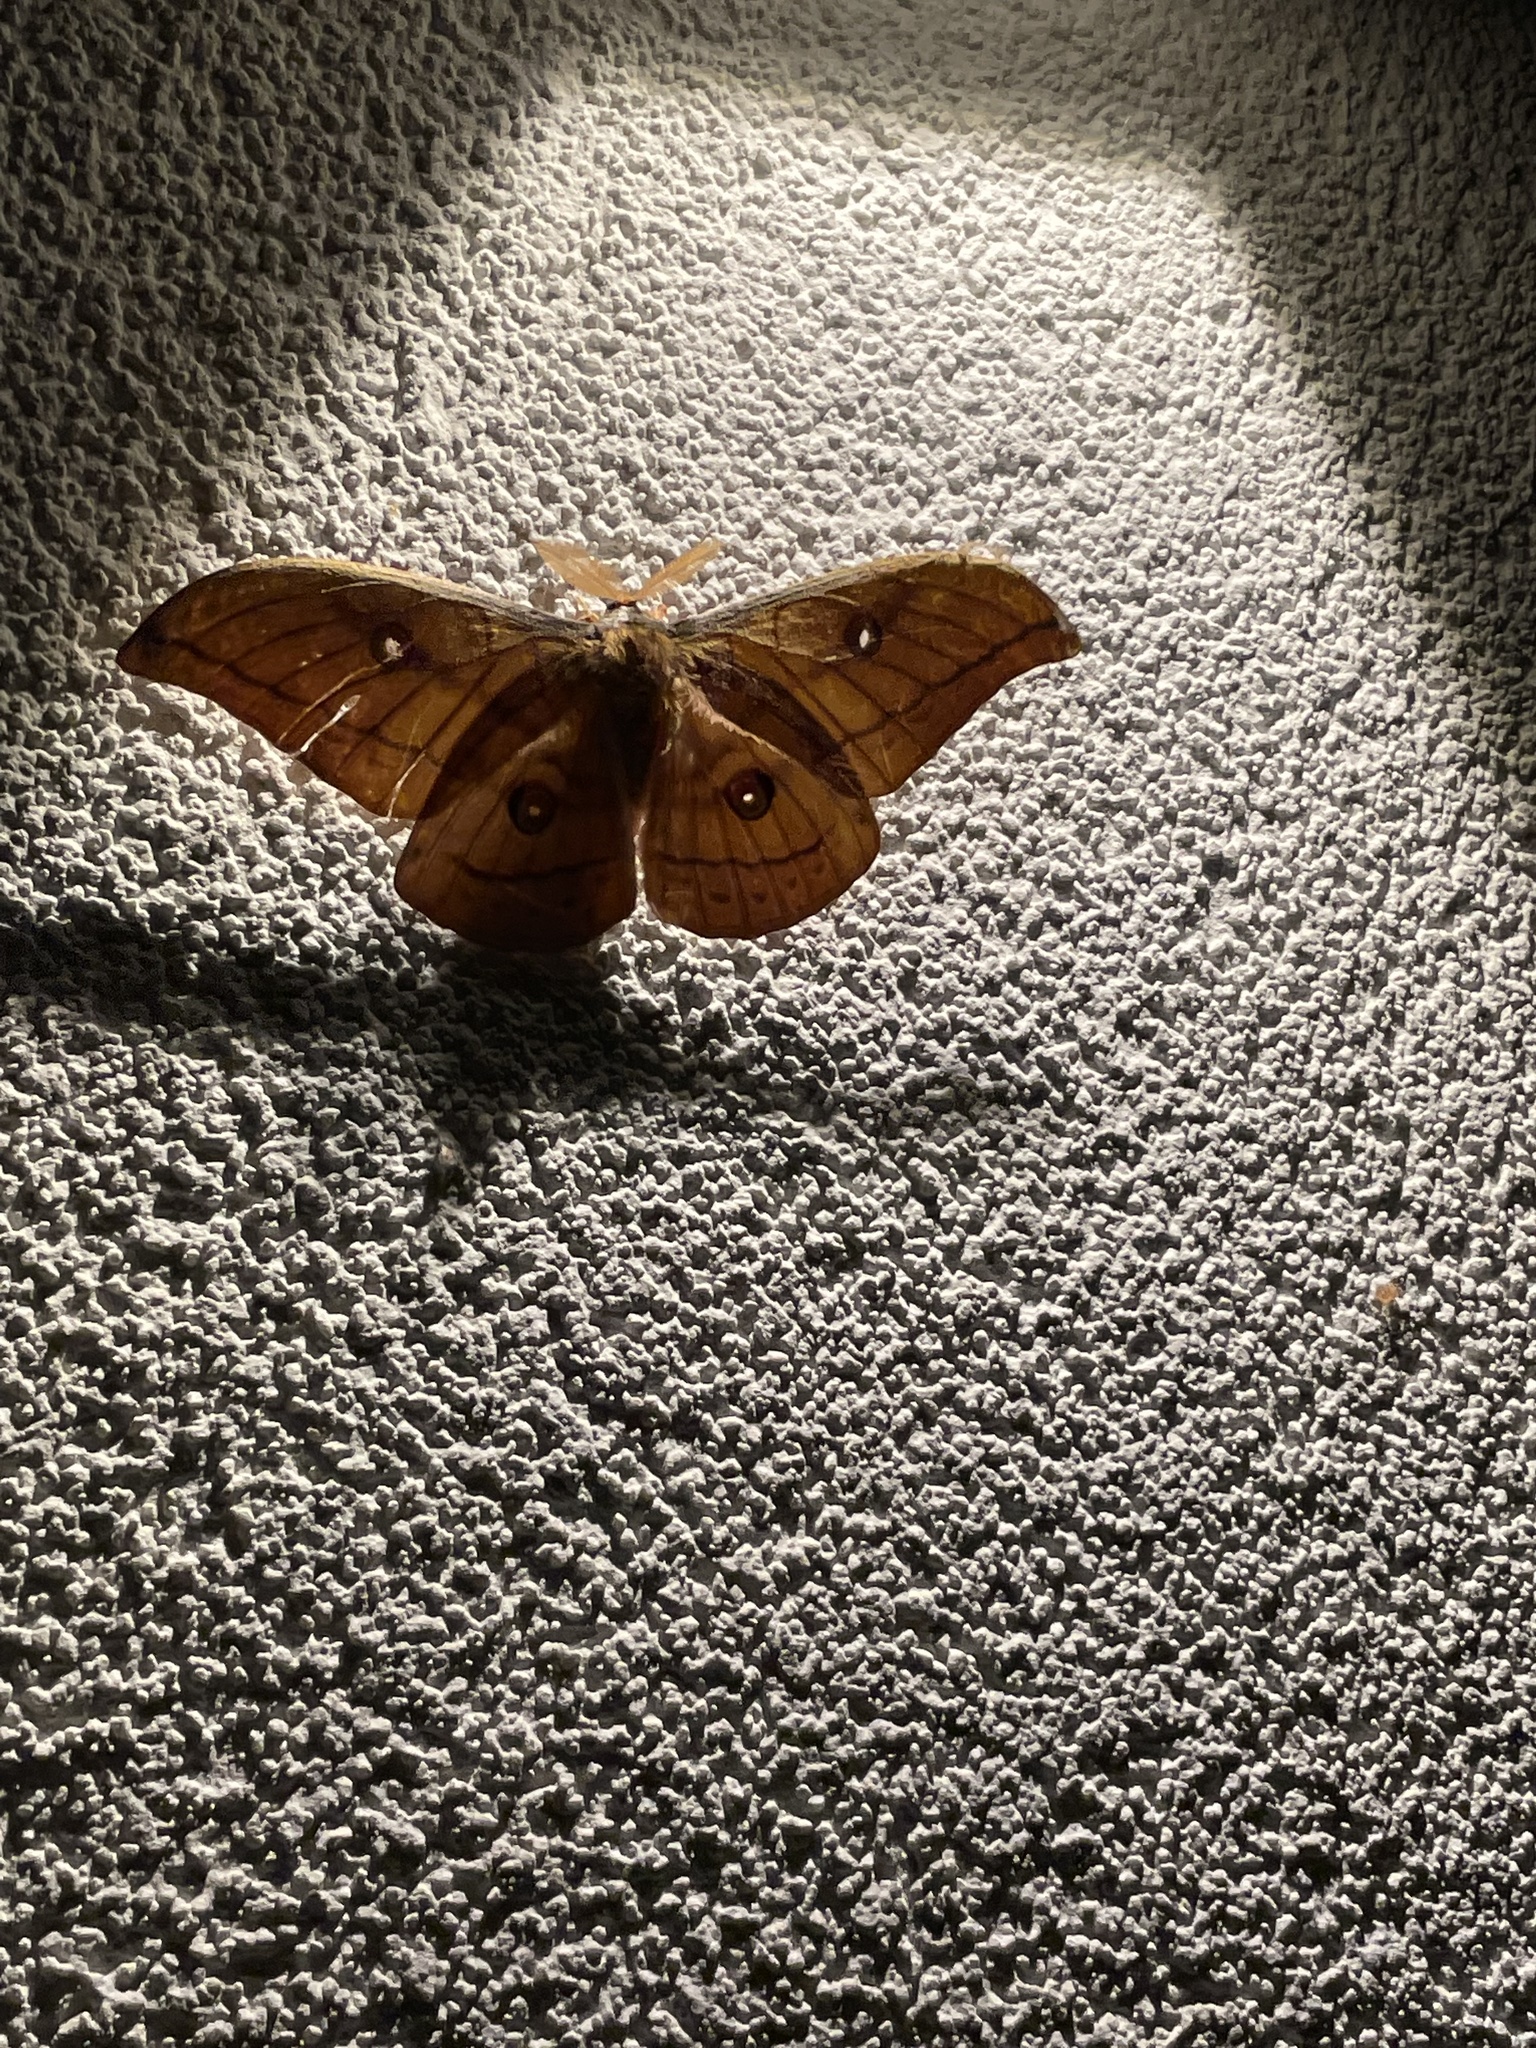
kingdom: Animalia
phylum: Arthropoda
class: Insecta
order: Lepidoptera
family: Saturniidae
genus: Antheraea
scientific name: Antheraea yamamai
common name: Japanese oak silk moth
